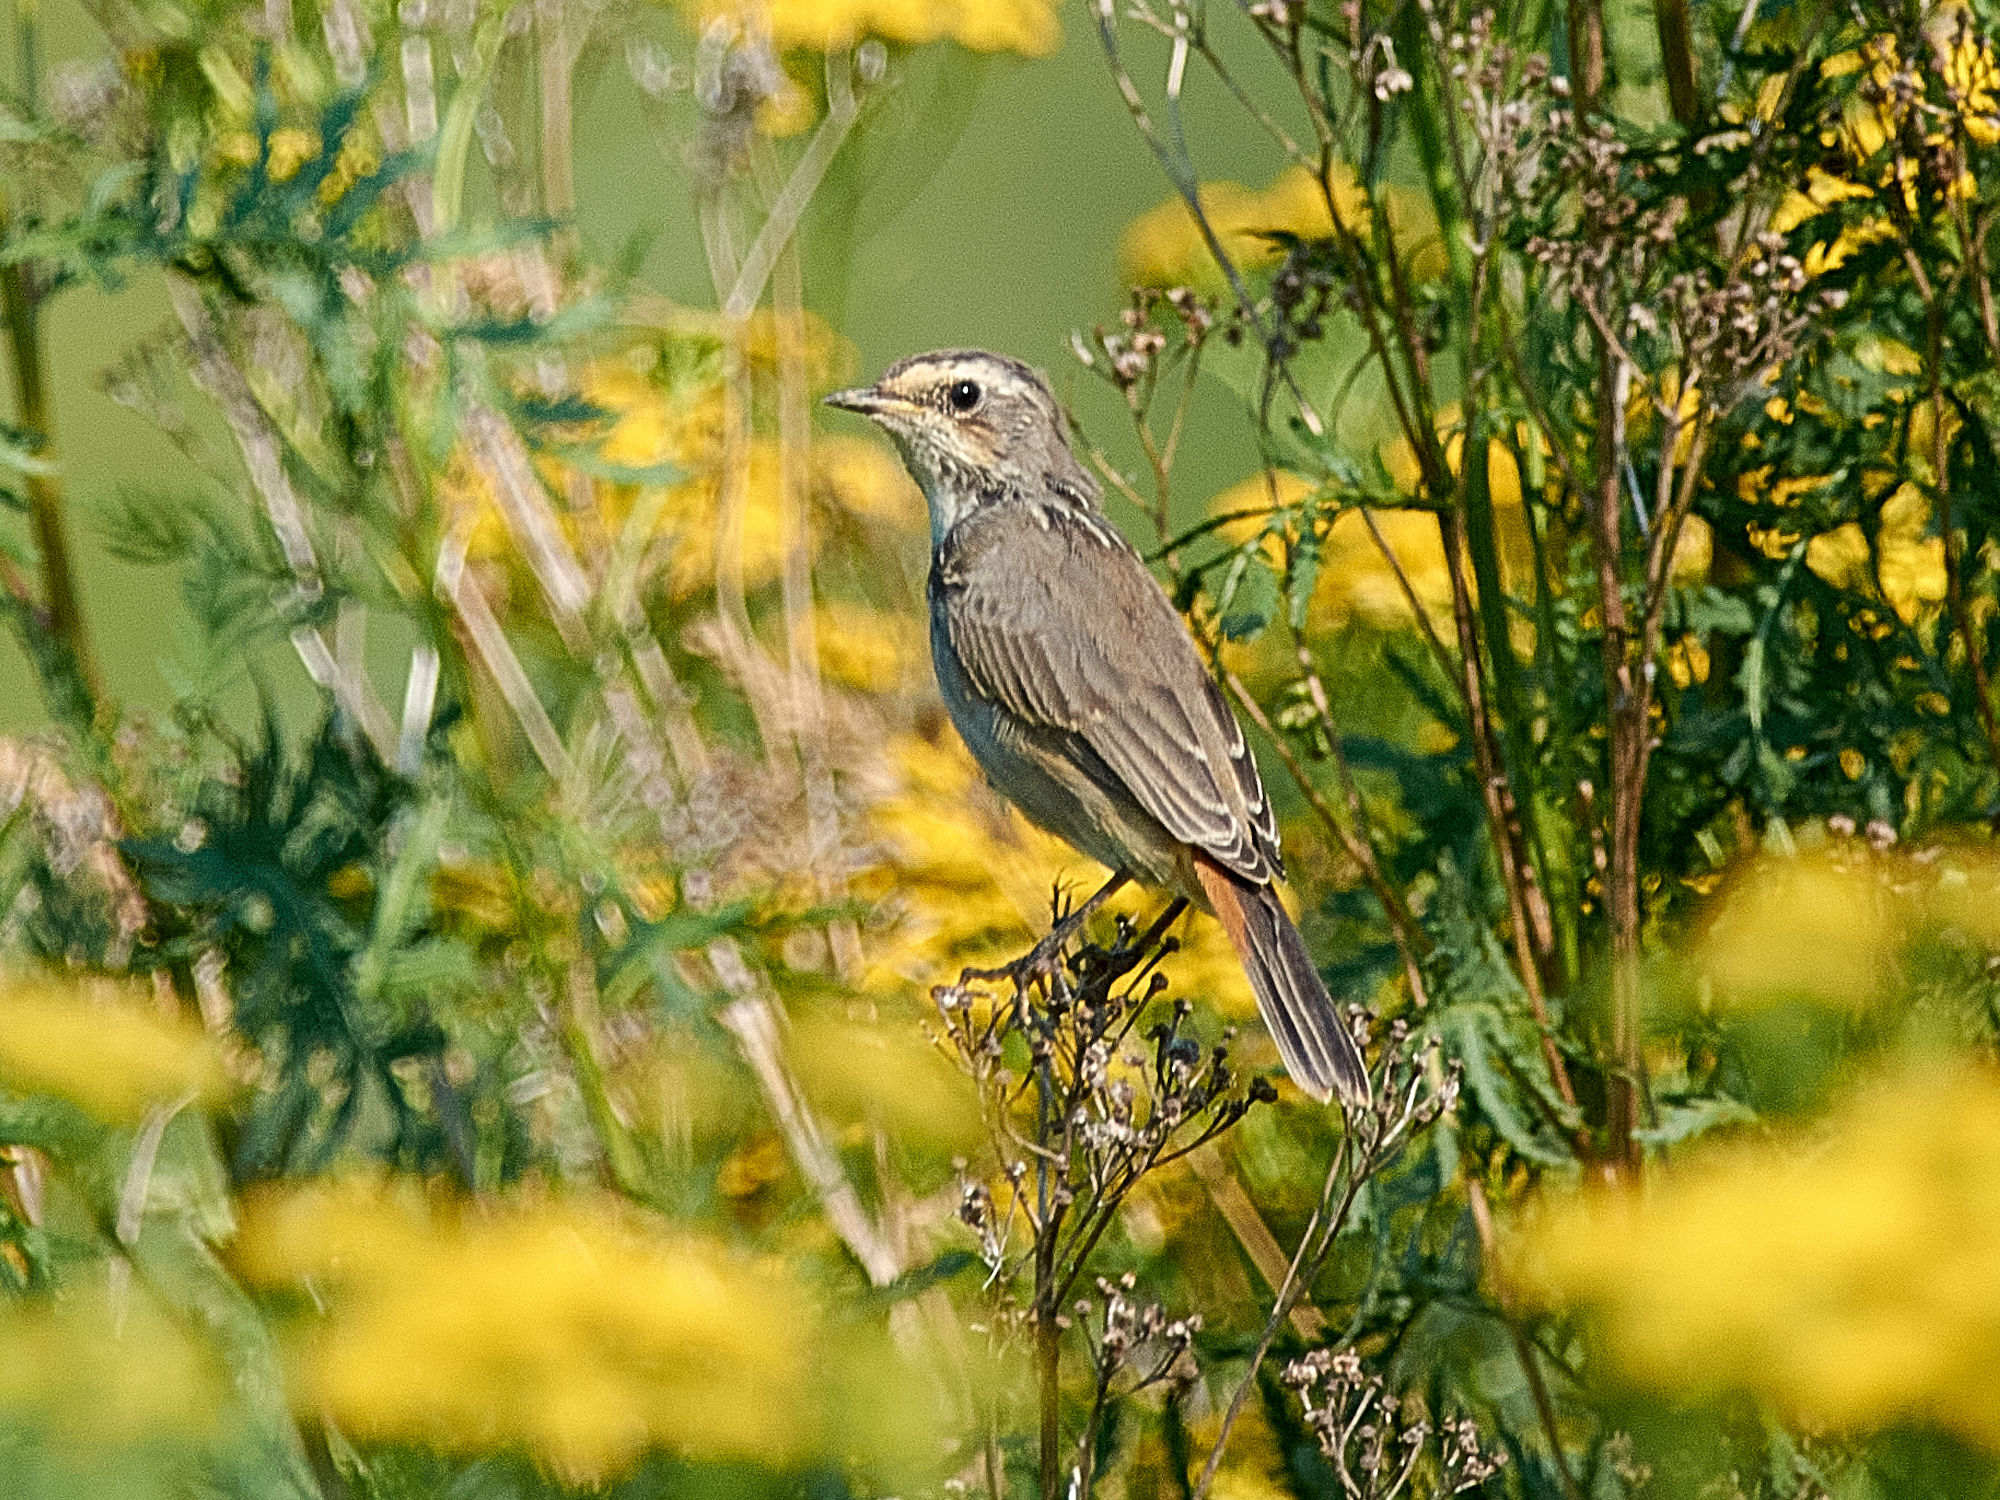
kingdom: Animalia
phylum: Chordata
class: Aves
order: Passeriformes
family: Muscicapidae
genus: Luscinia
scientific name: Luscinia svecica
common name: Bluethroat
